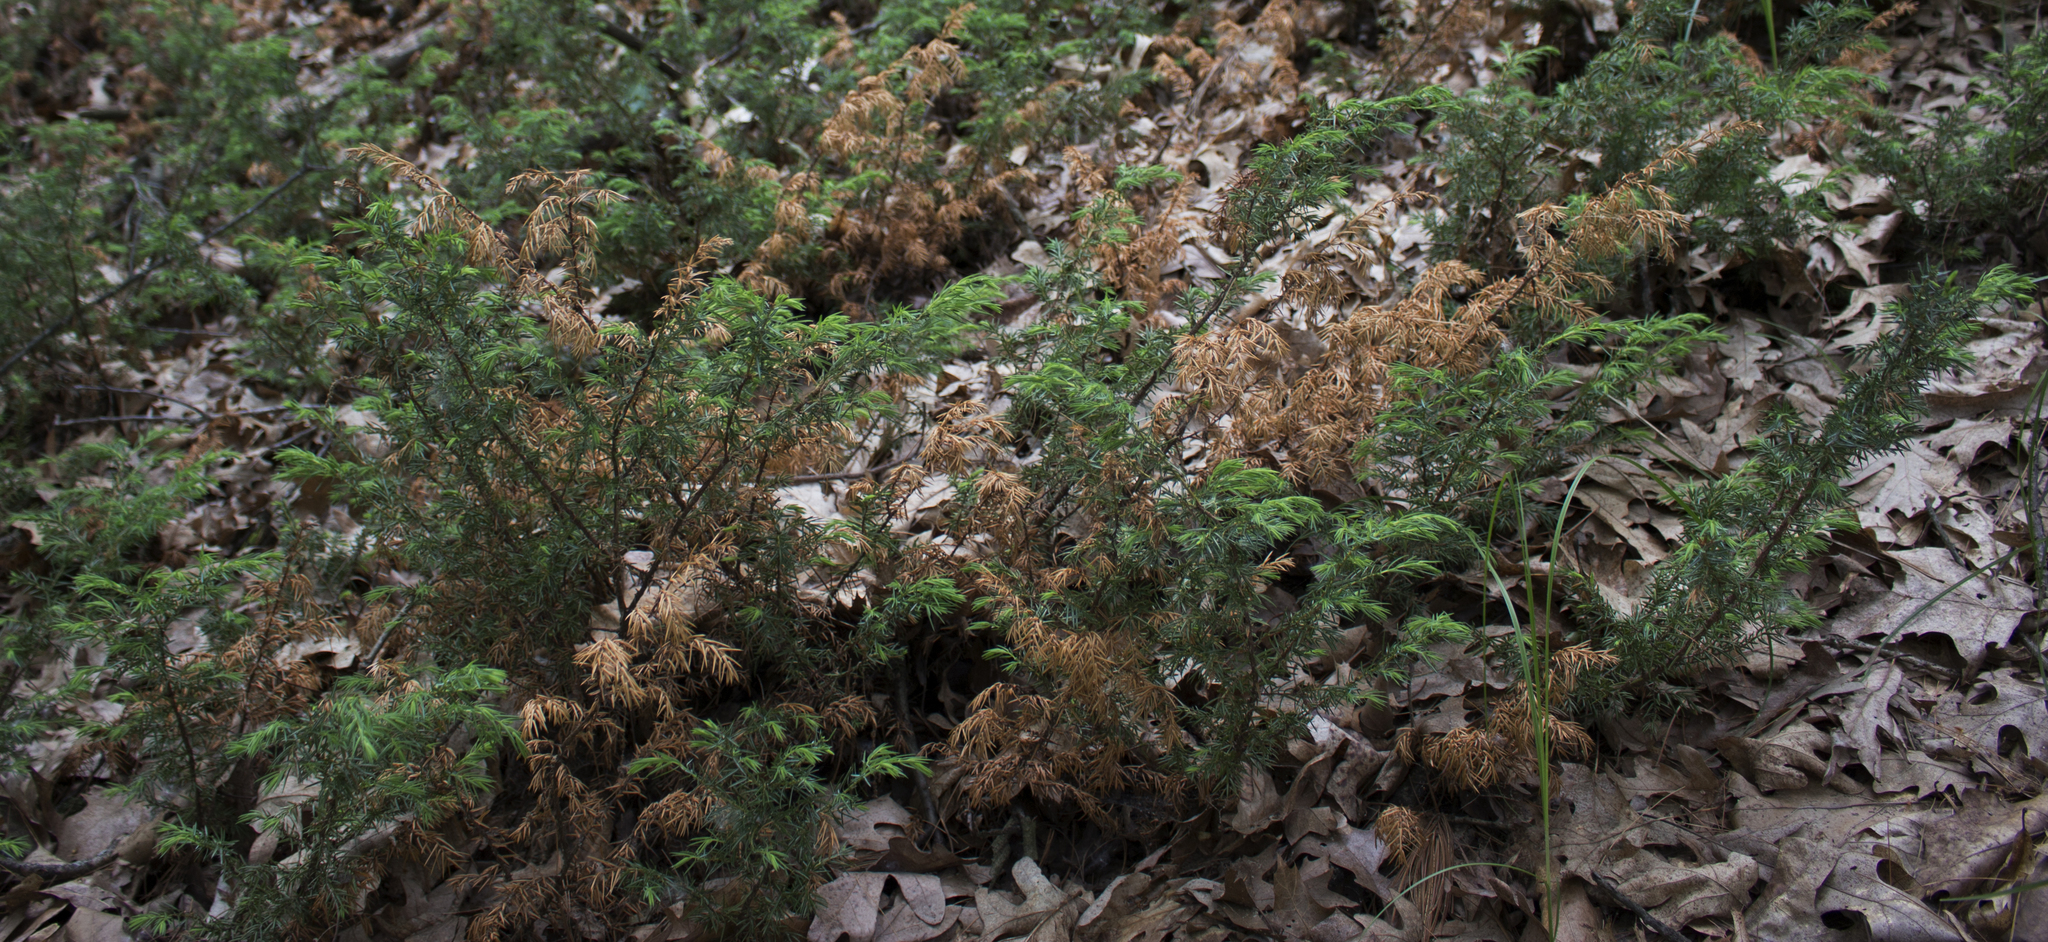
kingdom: Plantae
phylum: Tracheophyta
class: Pinopsida
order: Pinales
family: Cupressaceae
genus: Juniperus
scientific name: Juniperus communis
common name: Common juniper
